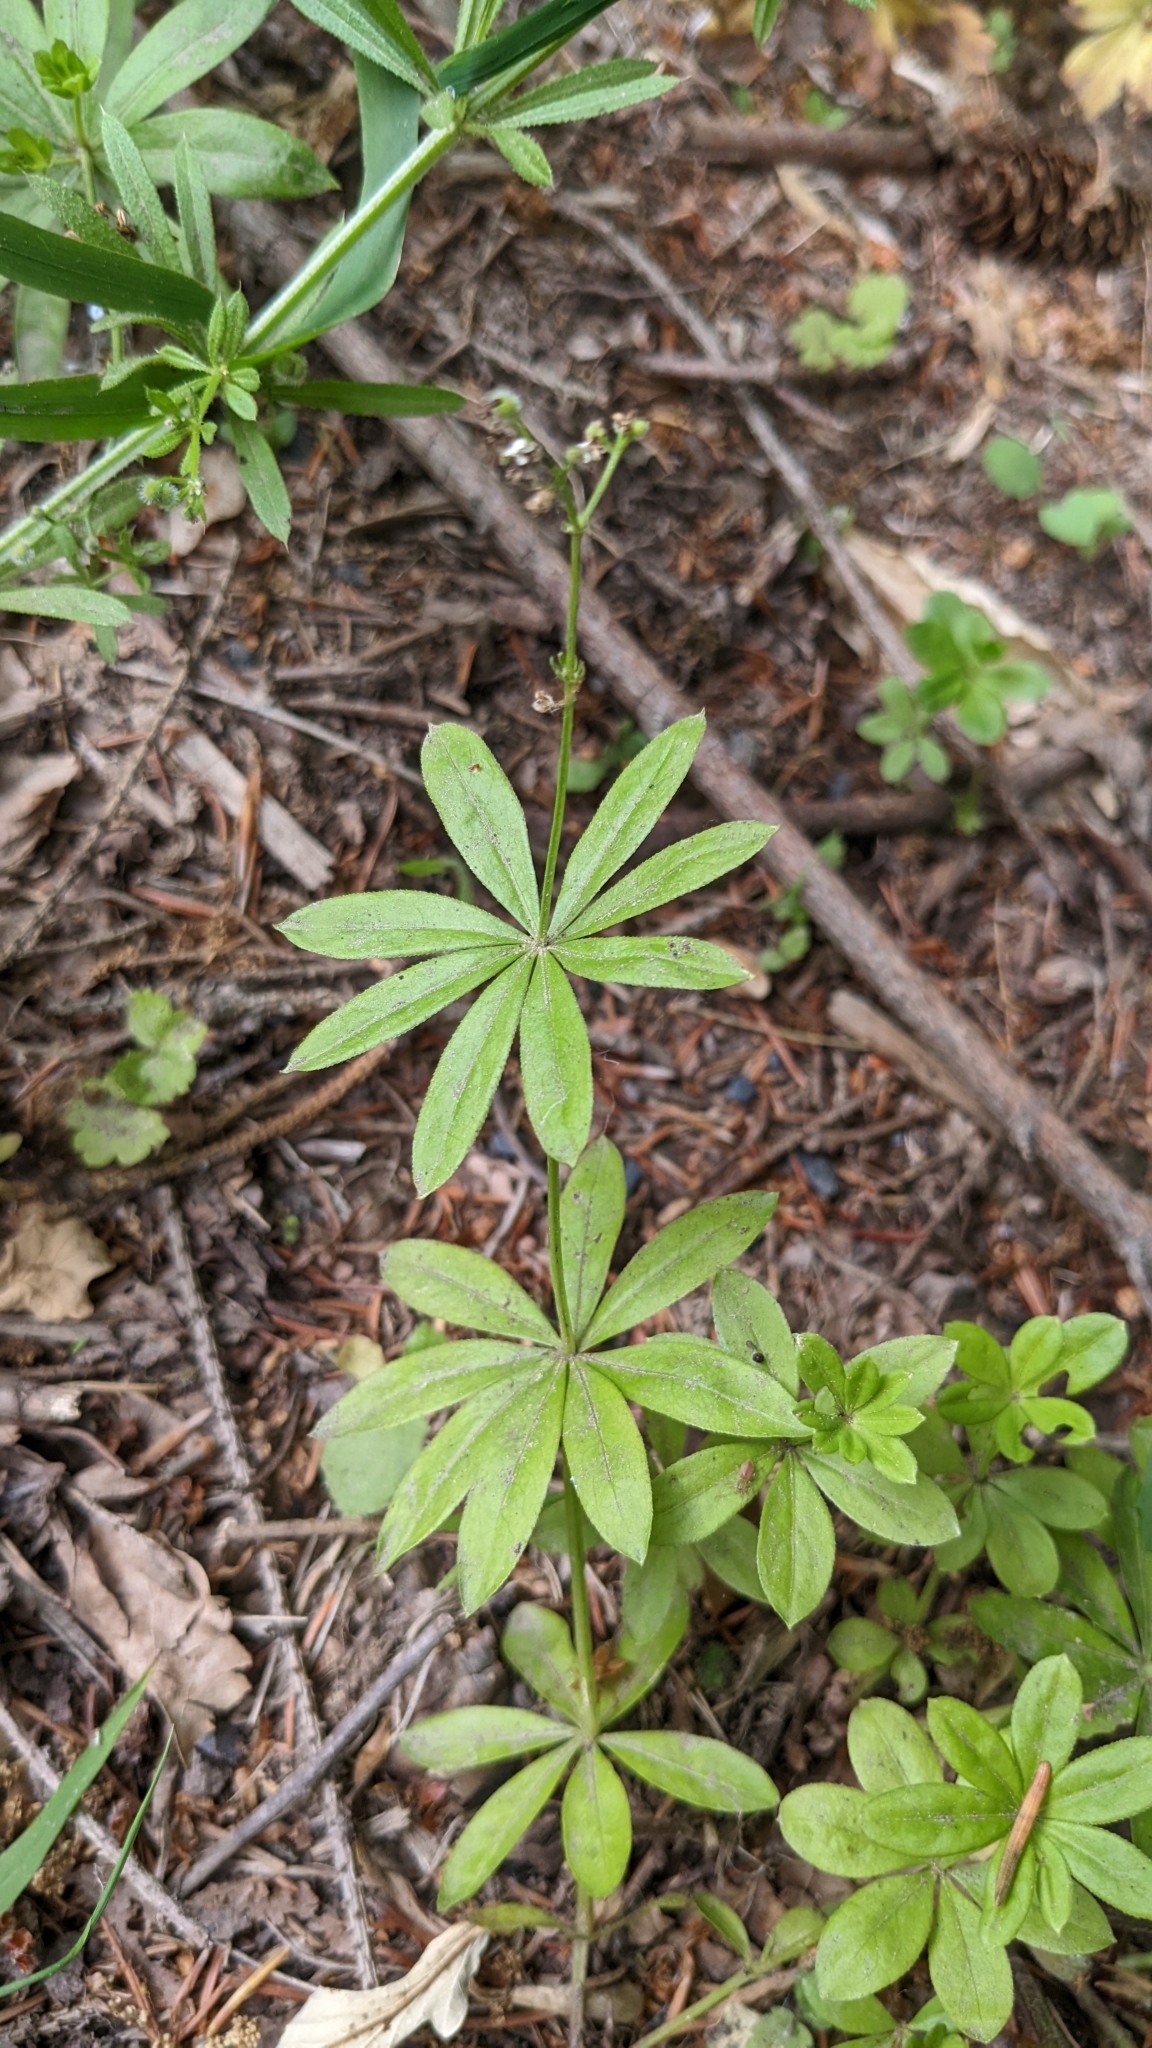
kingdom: Plantae
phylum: Tracheophyta
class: Magnoliopsida
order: Gentianales
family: Rubiaceae
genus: Galium
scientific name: Galium odoratum
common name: Sweet woodruff
